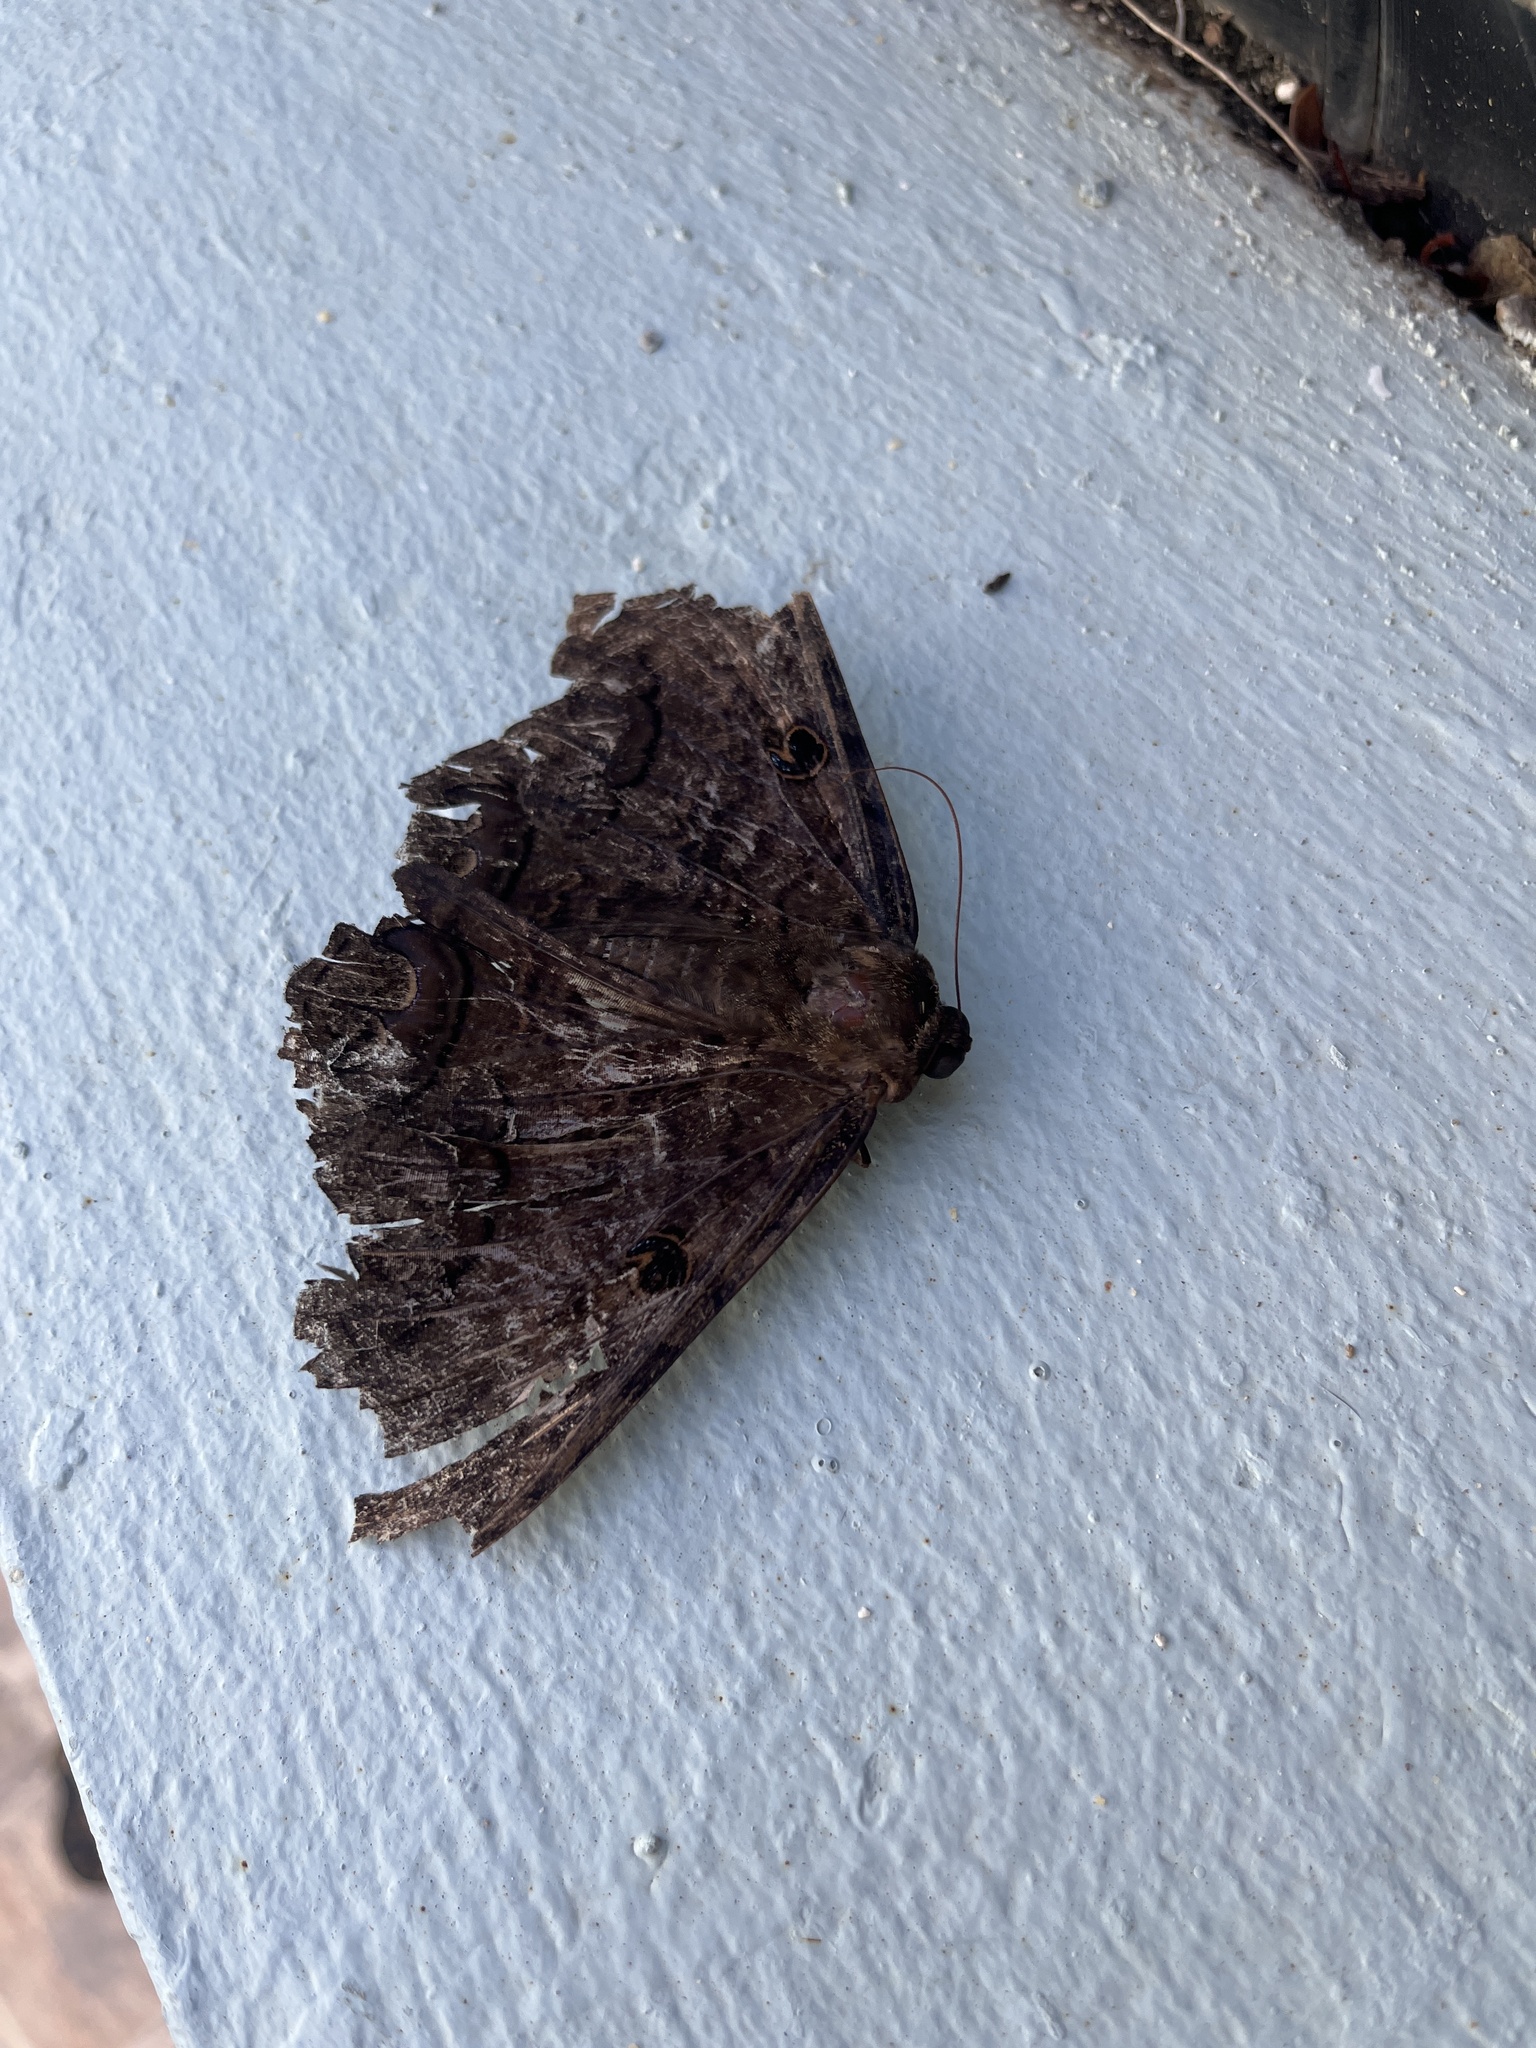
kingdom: Animalia
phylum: Arthropoda
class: Insecta
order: Lepidoptera
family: Erebidae
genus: Ascalapha
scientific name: Ascalapha odorata
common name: Black witch
